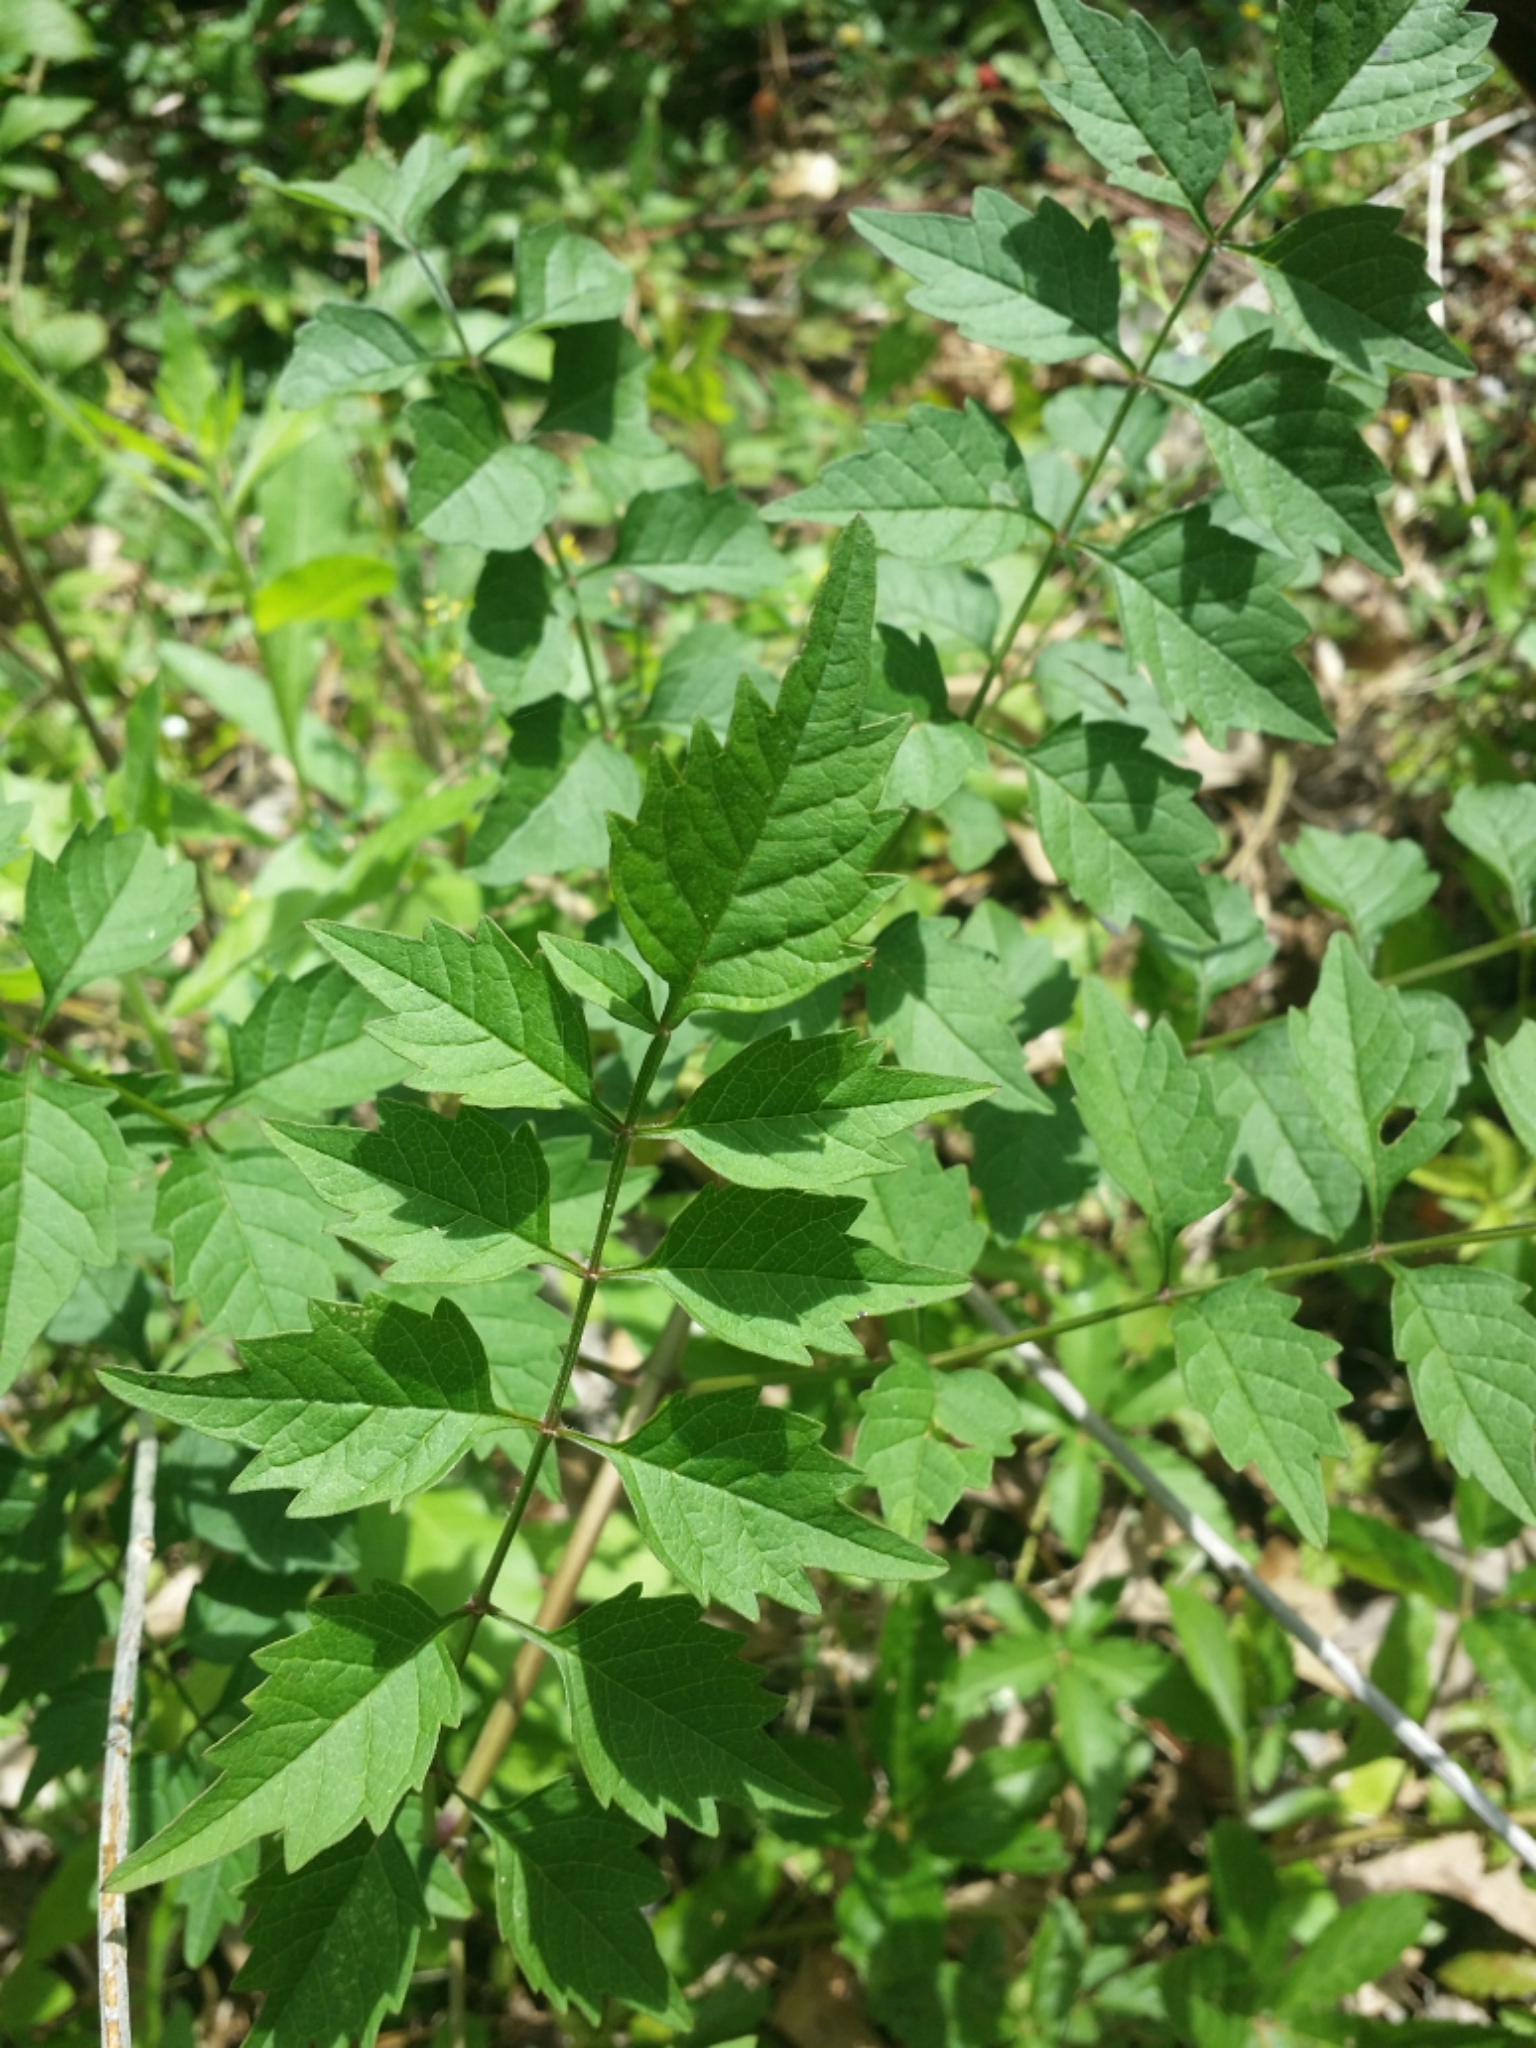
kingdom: Plantae
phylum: Tracheophyta
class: Magnoliopsida
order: Lamiales
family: Bignoniaceae
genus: Campsis
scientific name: Campsis radicans
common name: Trumpet-creeper
